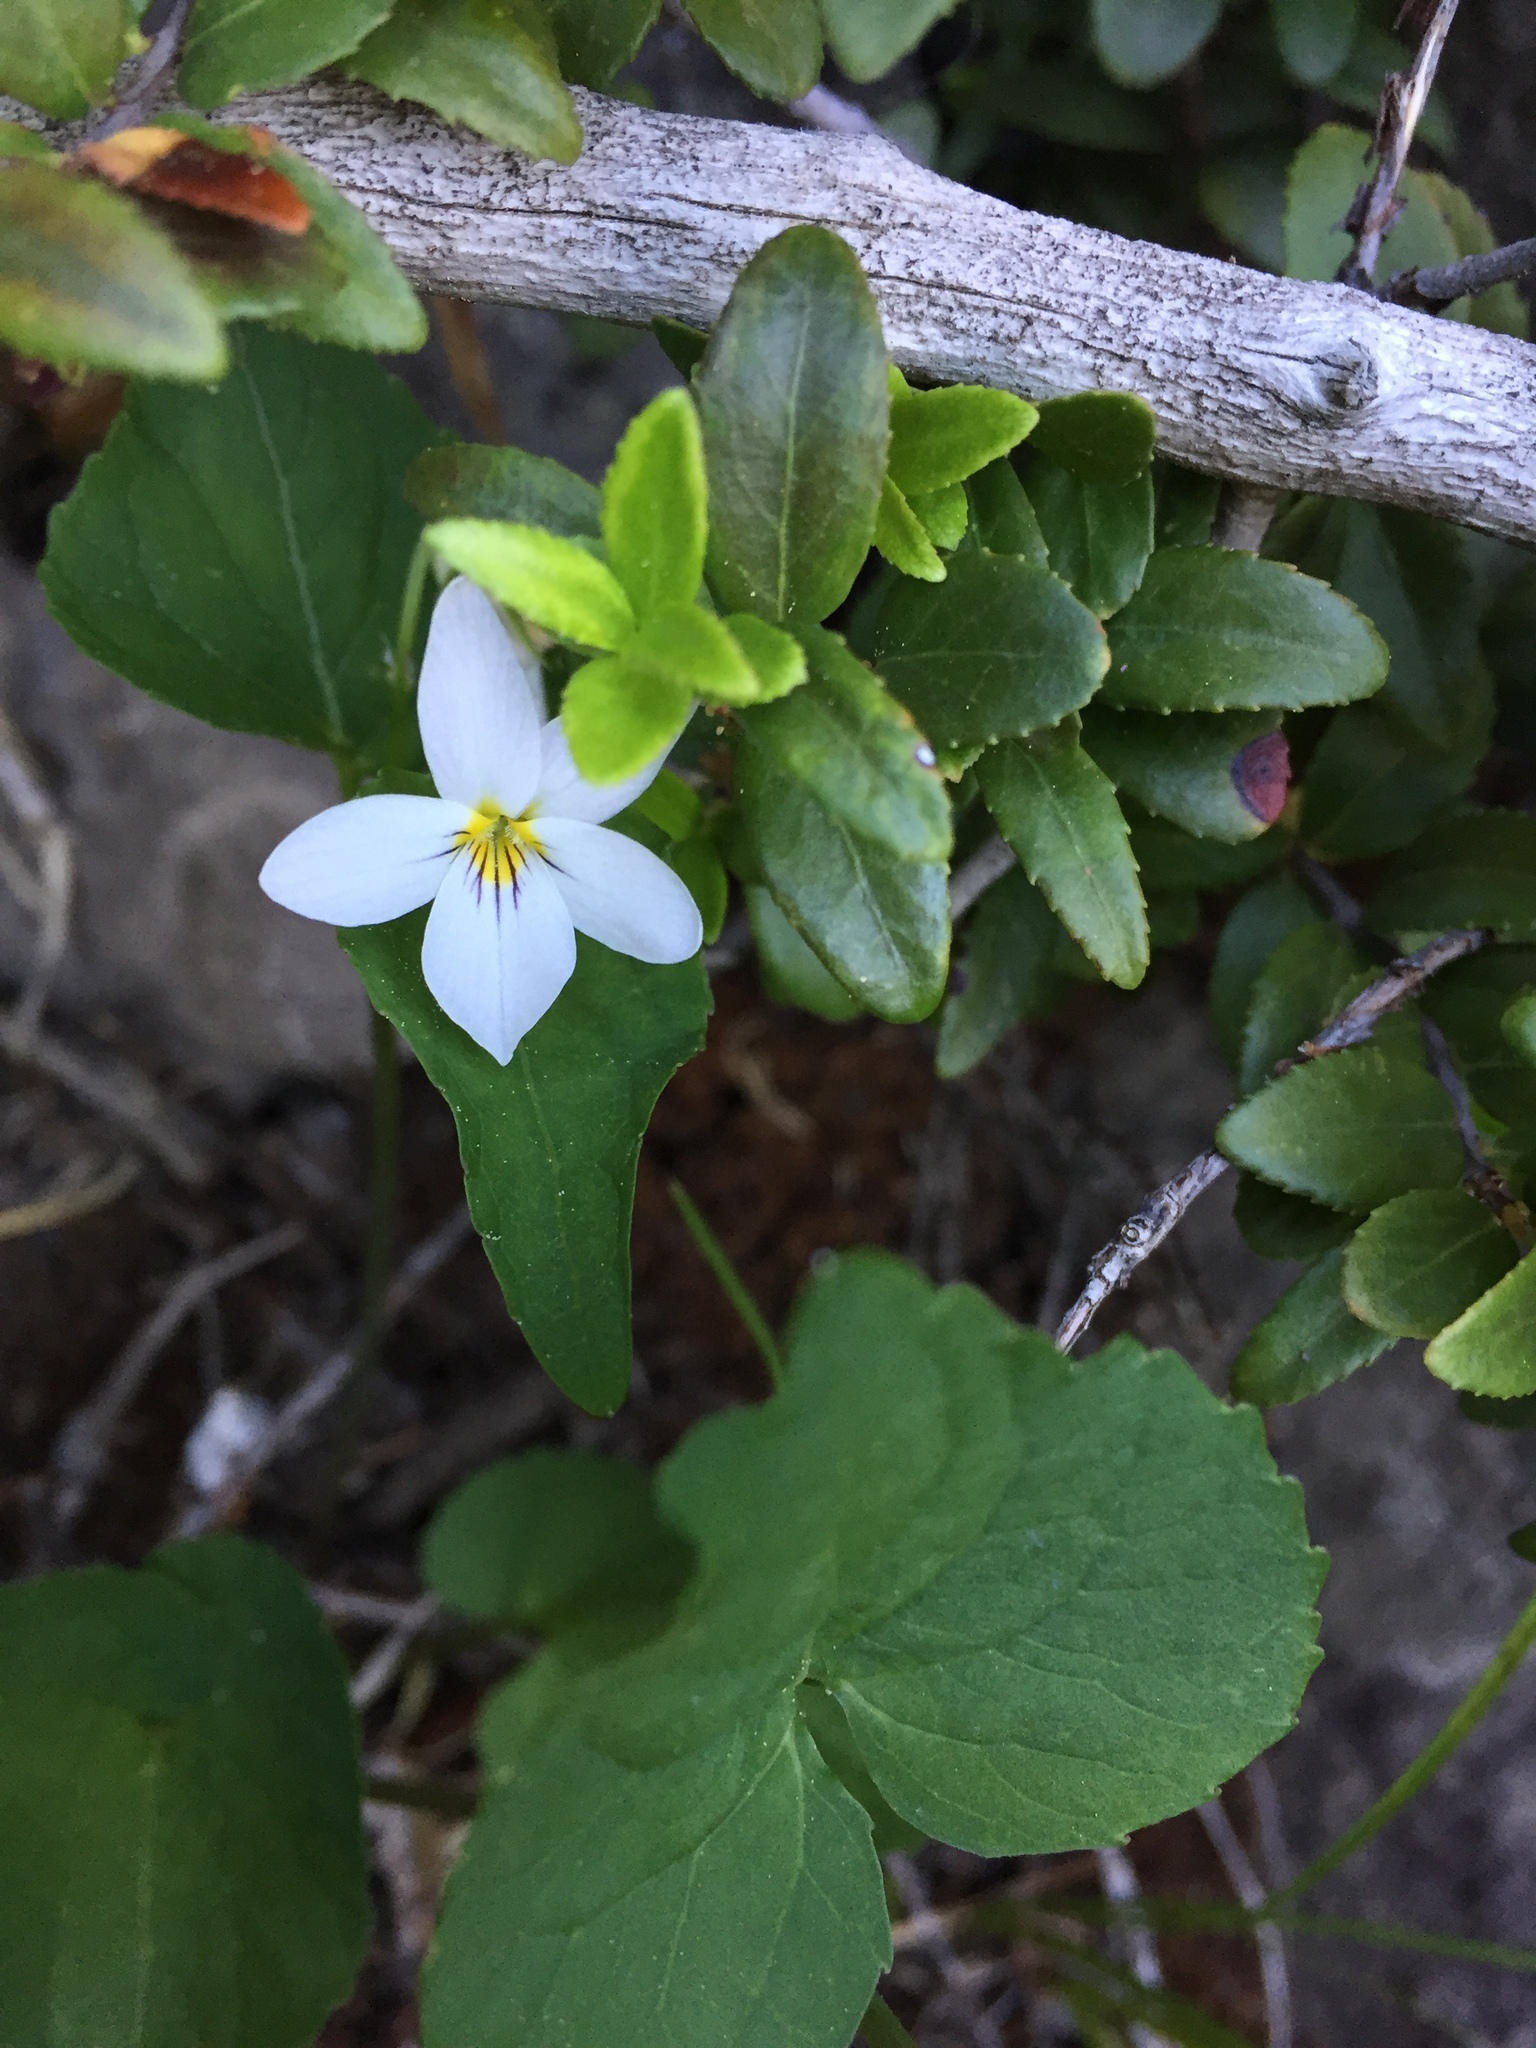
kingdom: Plantae
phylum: Tracheophyta
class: Magnoliopsida
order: Malpighiales
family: Violaceae
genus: Viola
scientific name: Viola canadensis
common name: Canada violet
